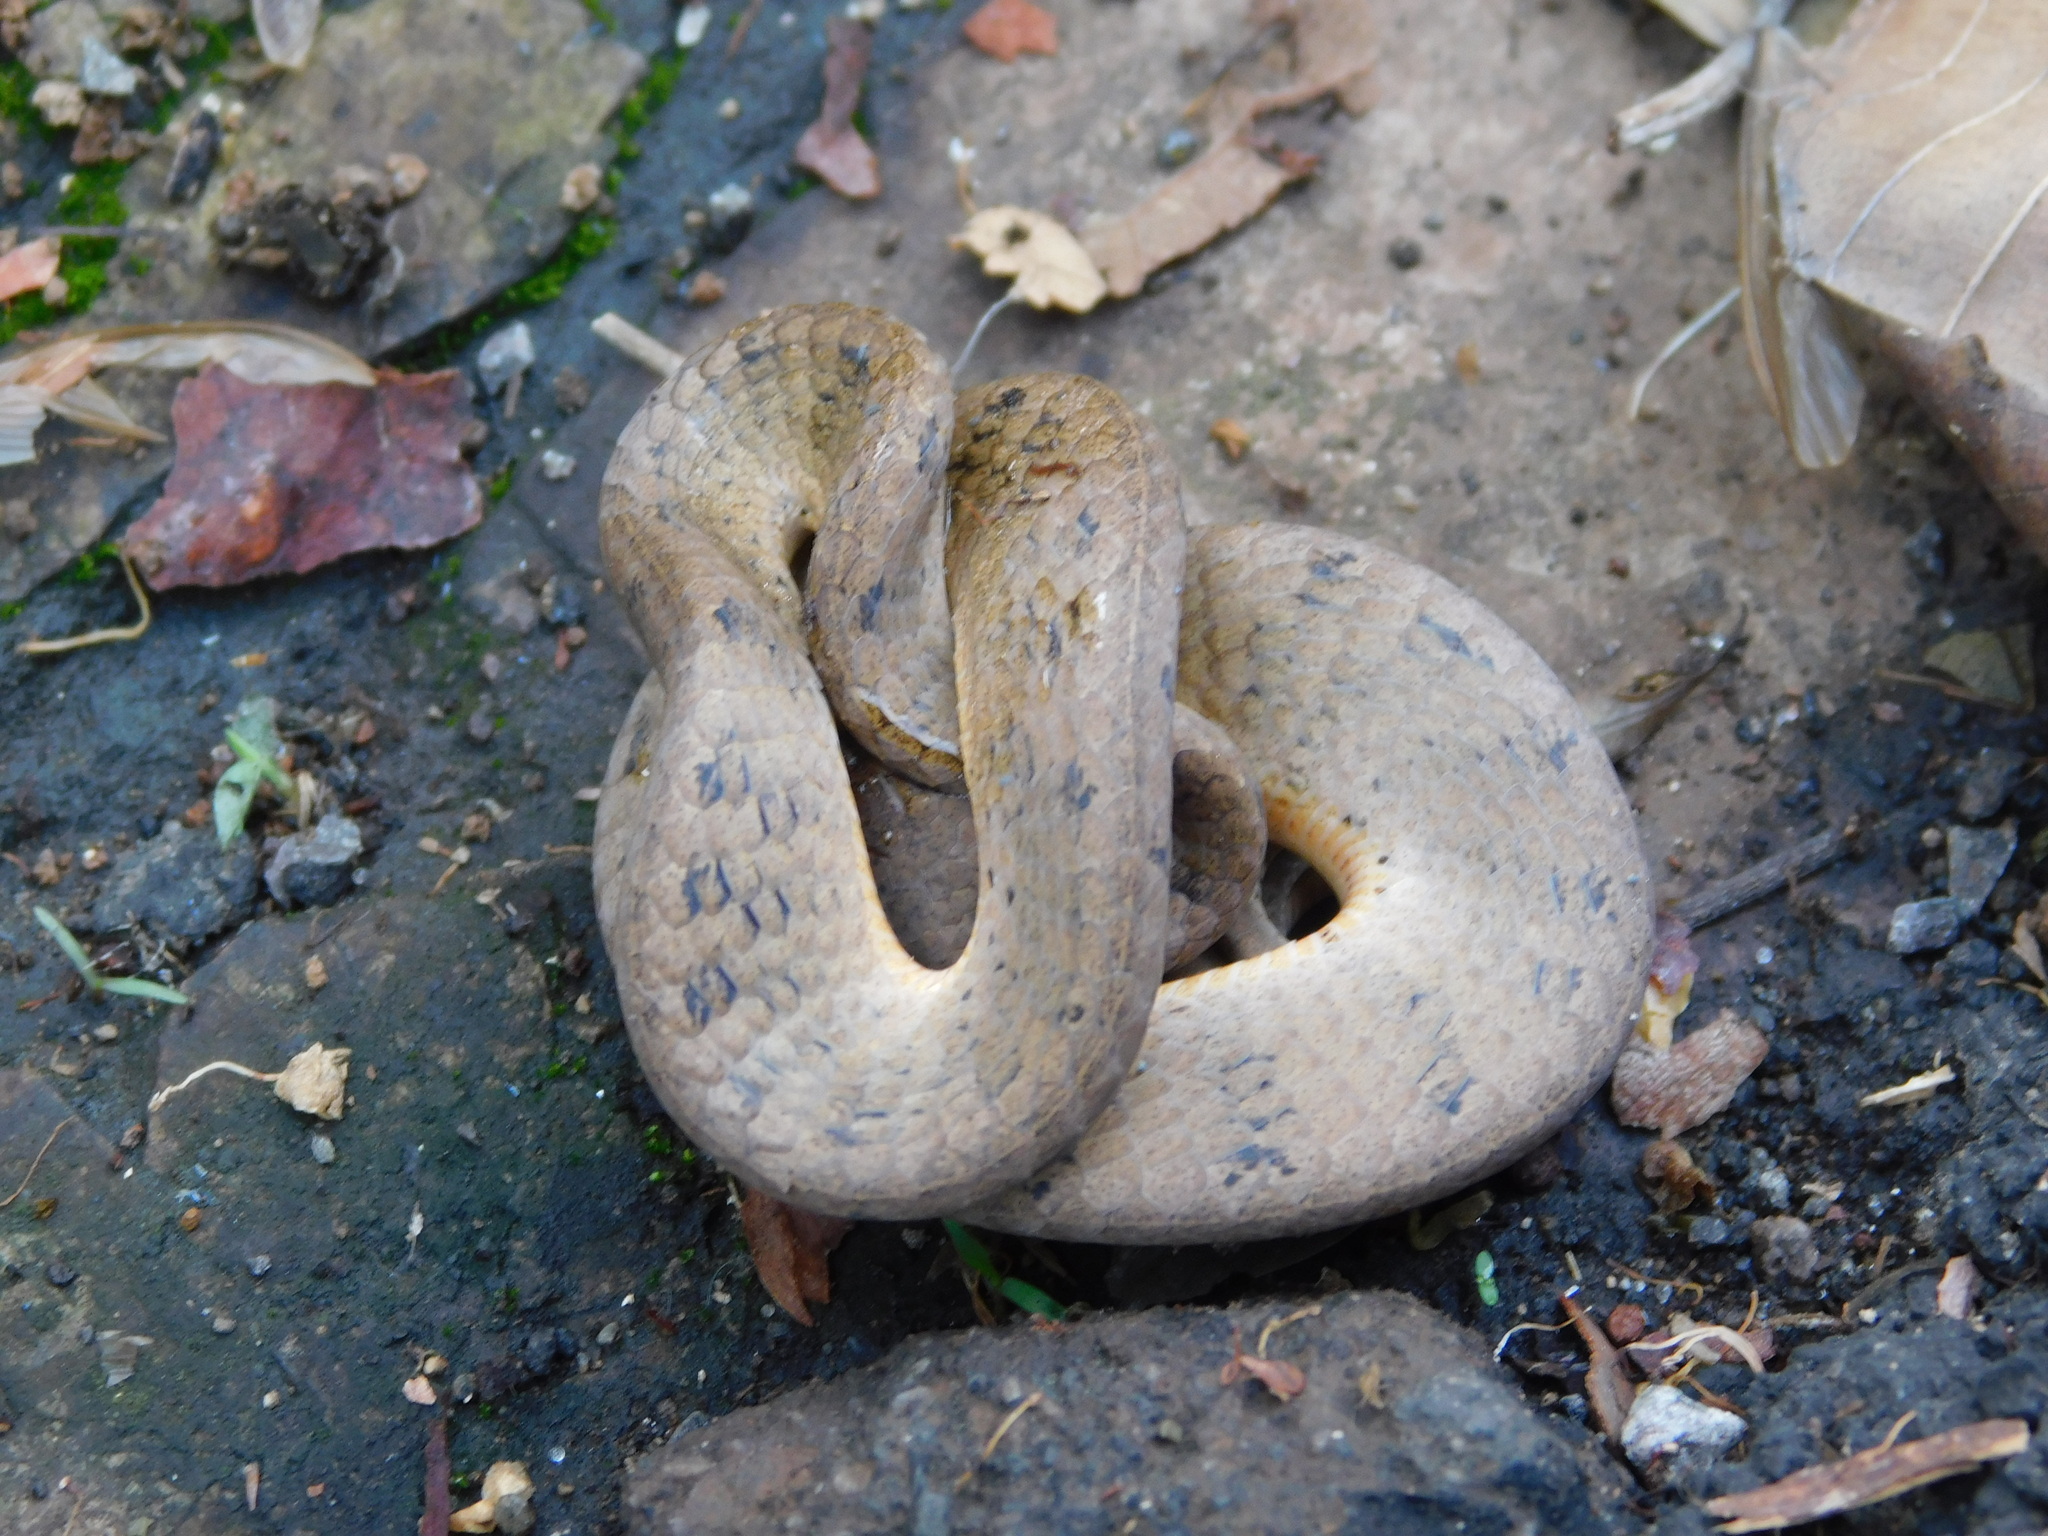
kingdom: Animalia
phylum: Chordata
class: Squamata
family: Pareidae
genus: Pareas
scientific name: Pareas carinatus
